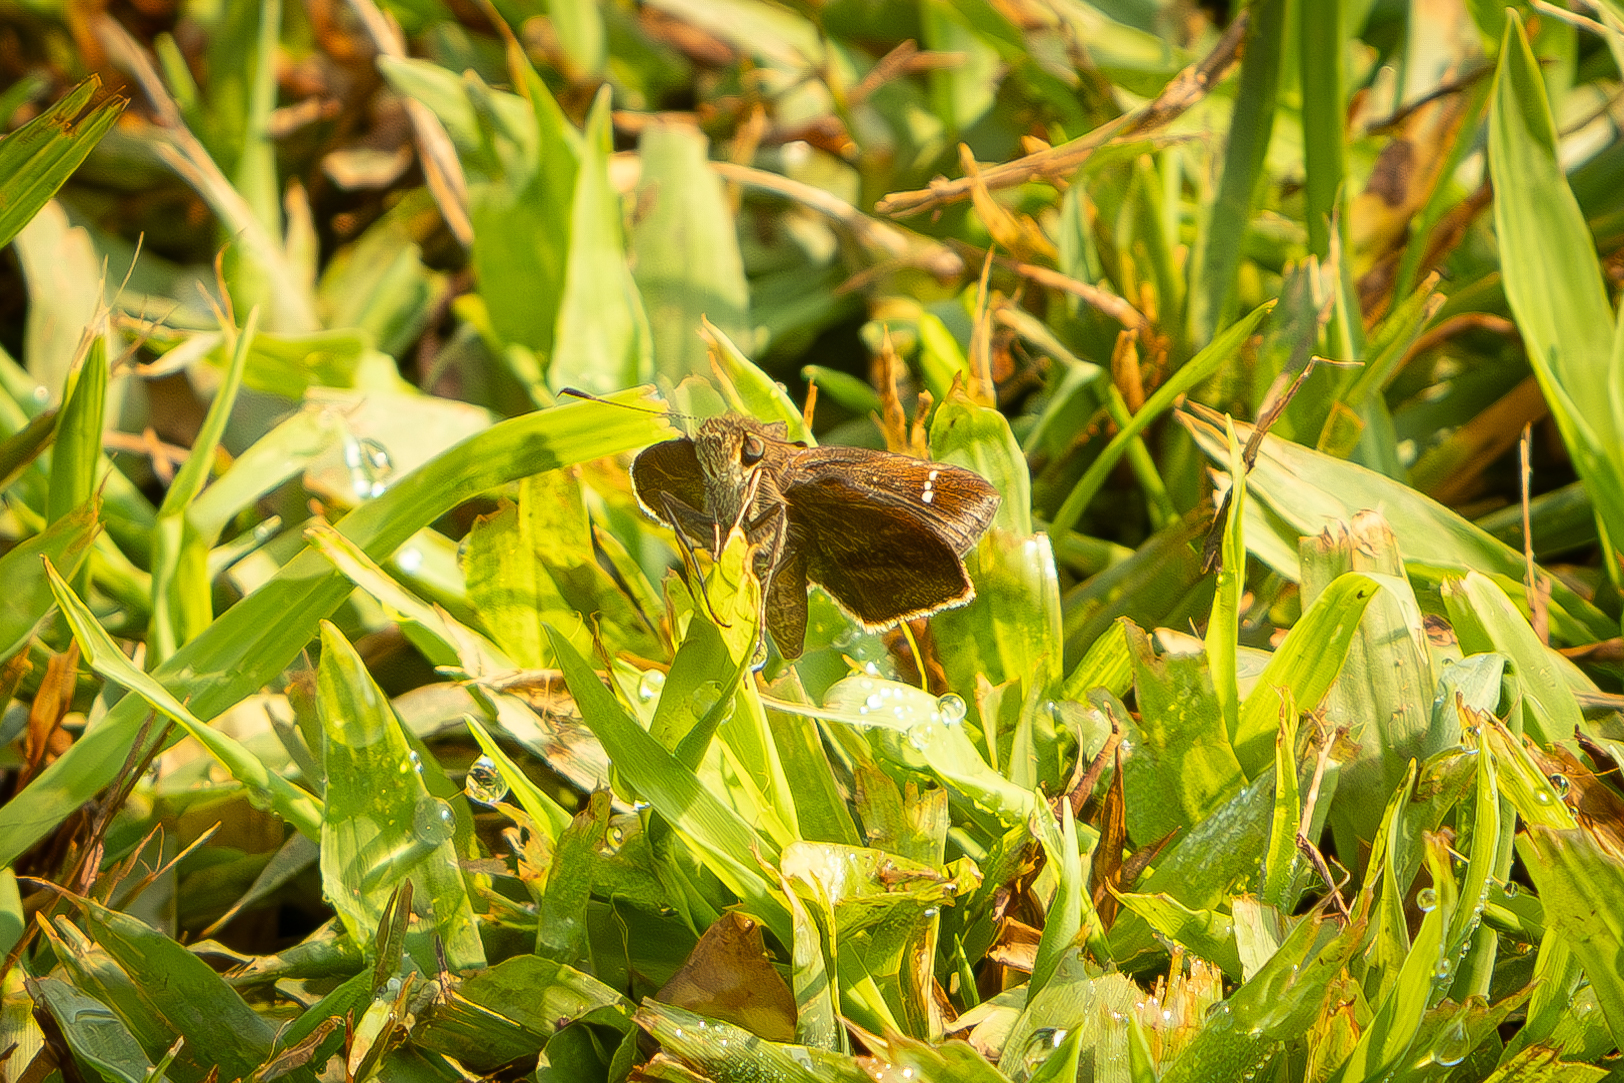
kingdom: Animalia
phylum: Arthropoda
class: Insecta
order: Lepidoptera
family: Hesperiidae
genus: Lerema
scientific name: Lerema accius
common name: Clouded skipper
